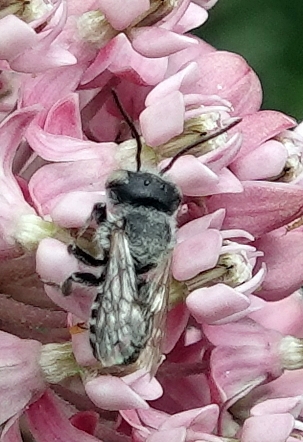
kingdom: Animalia
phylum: Arthropoda
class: Insecta
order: Hymenoptera
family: Megachilidae
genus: Megachile
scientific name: Megachile rotundata
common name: Alfalfa leafcutting bee
